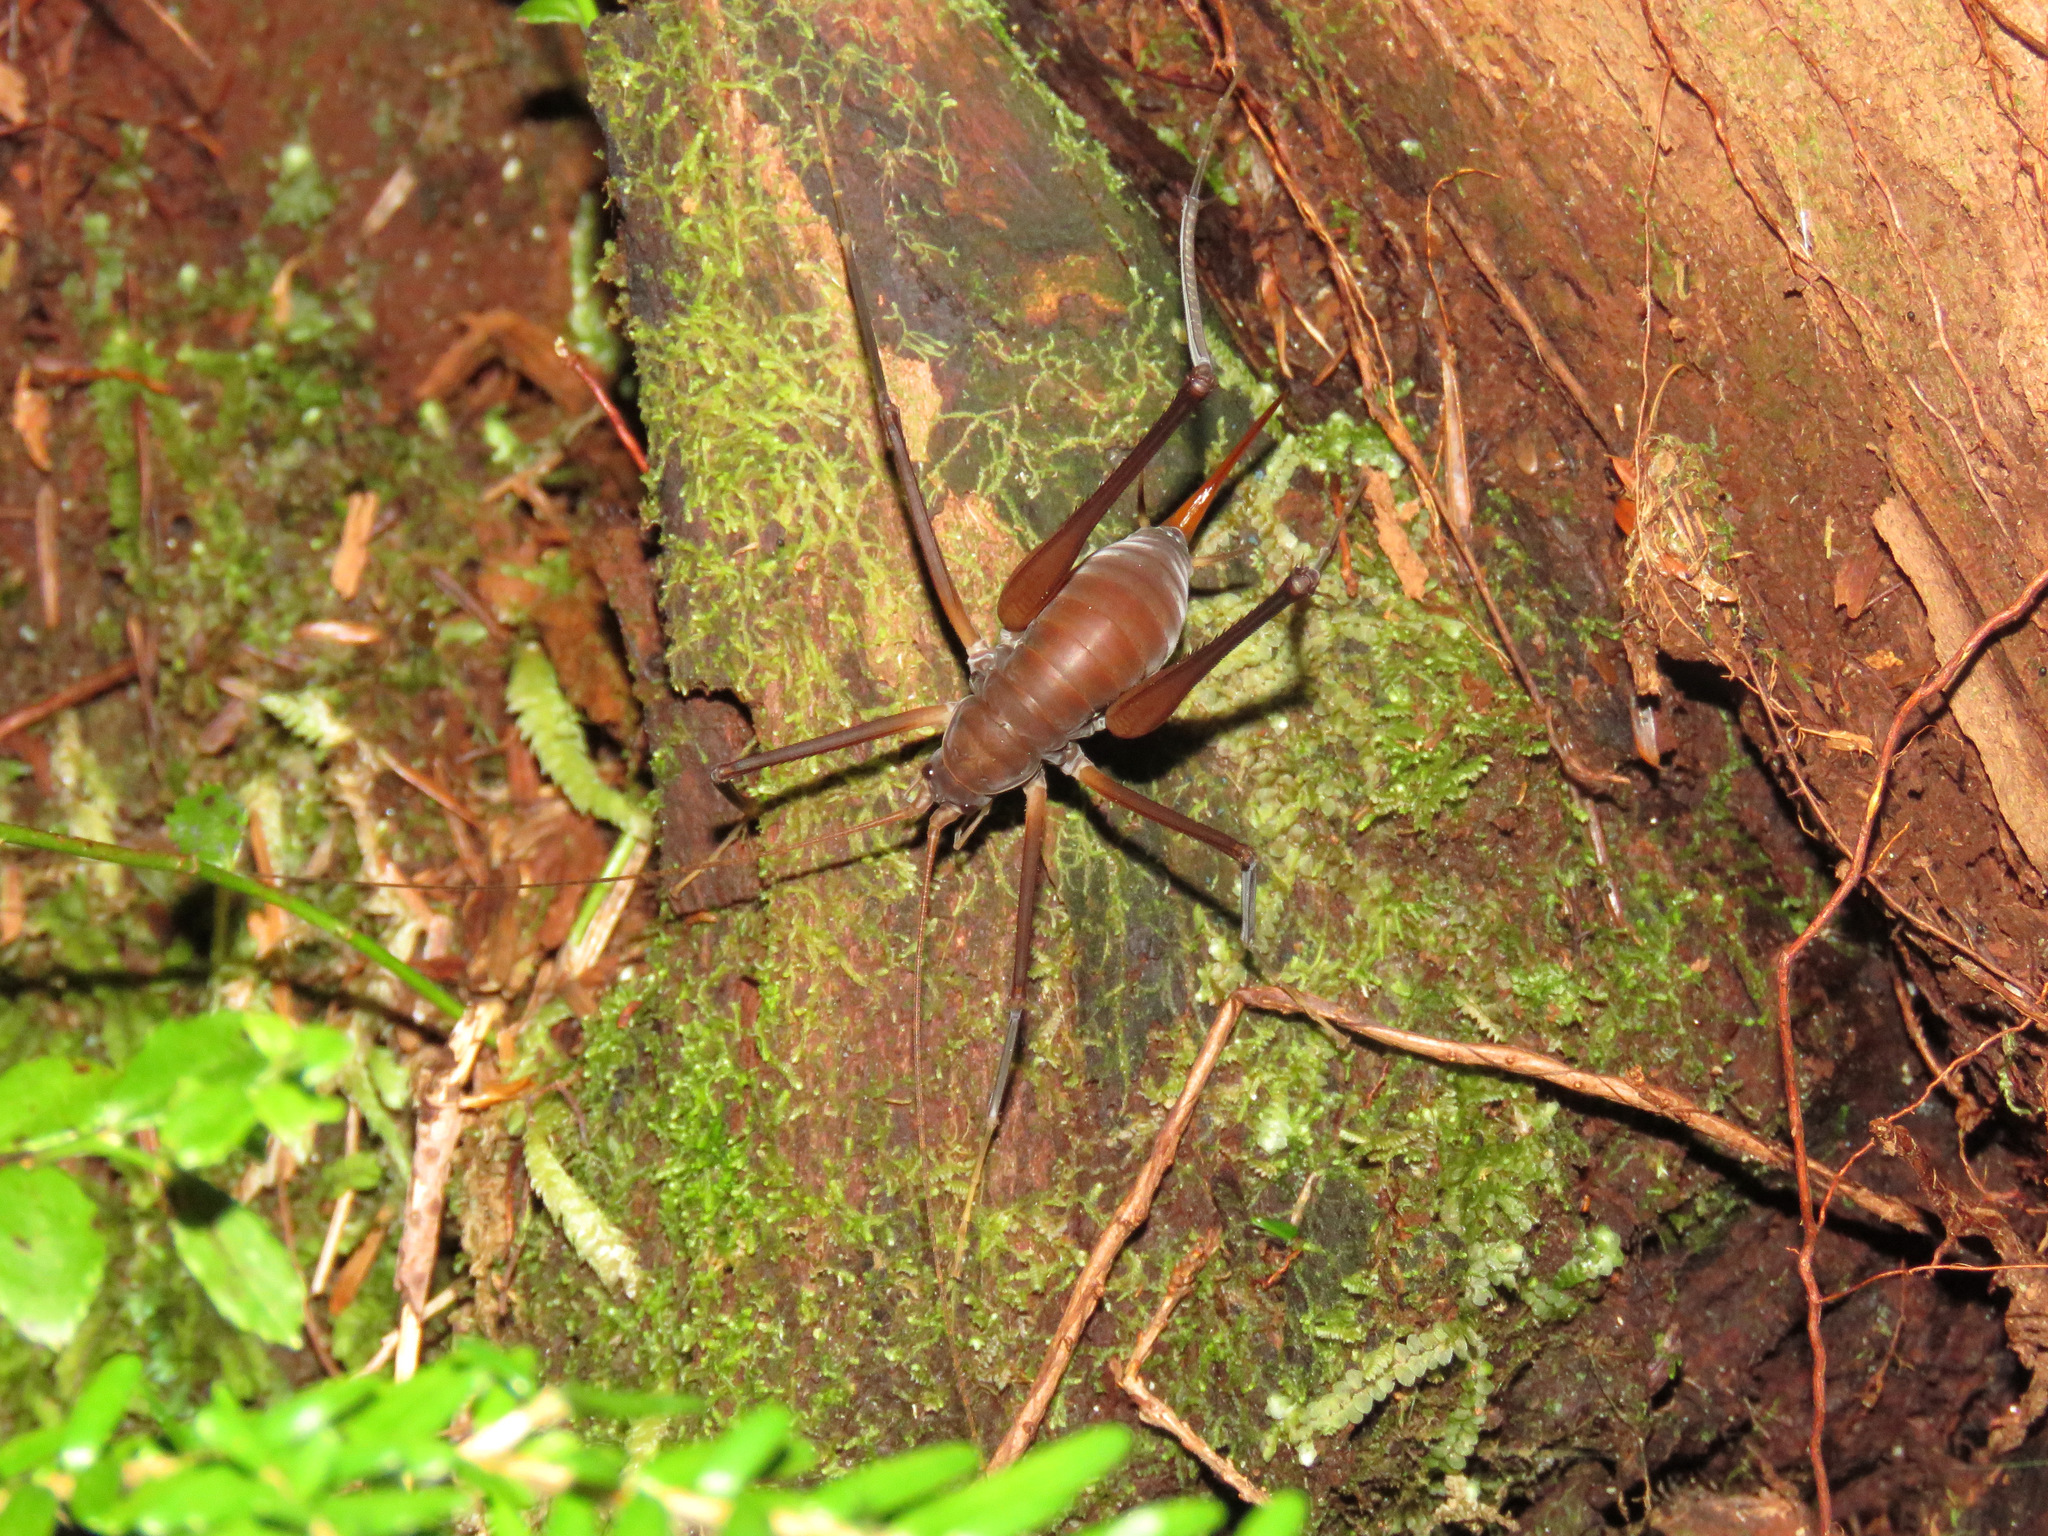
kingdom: Animalia
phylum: Arthropoda
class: Insecta
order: Orthoptera
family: Rhaphidophoridae
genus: Tropidischia
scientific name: Tropidischia xanthostoma
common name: Square-legged camel cricket
